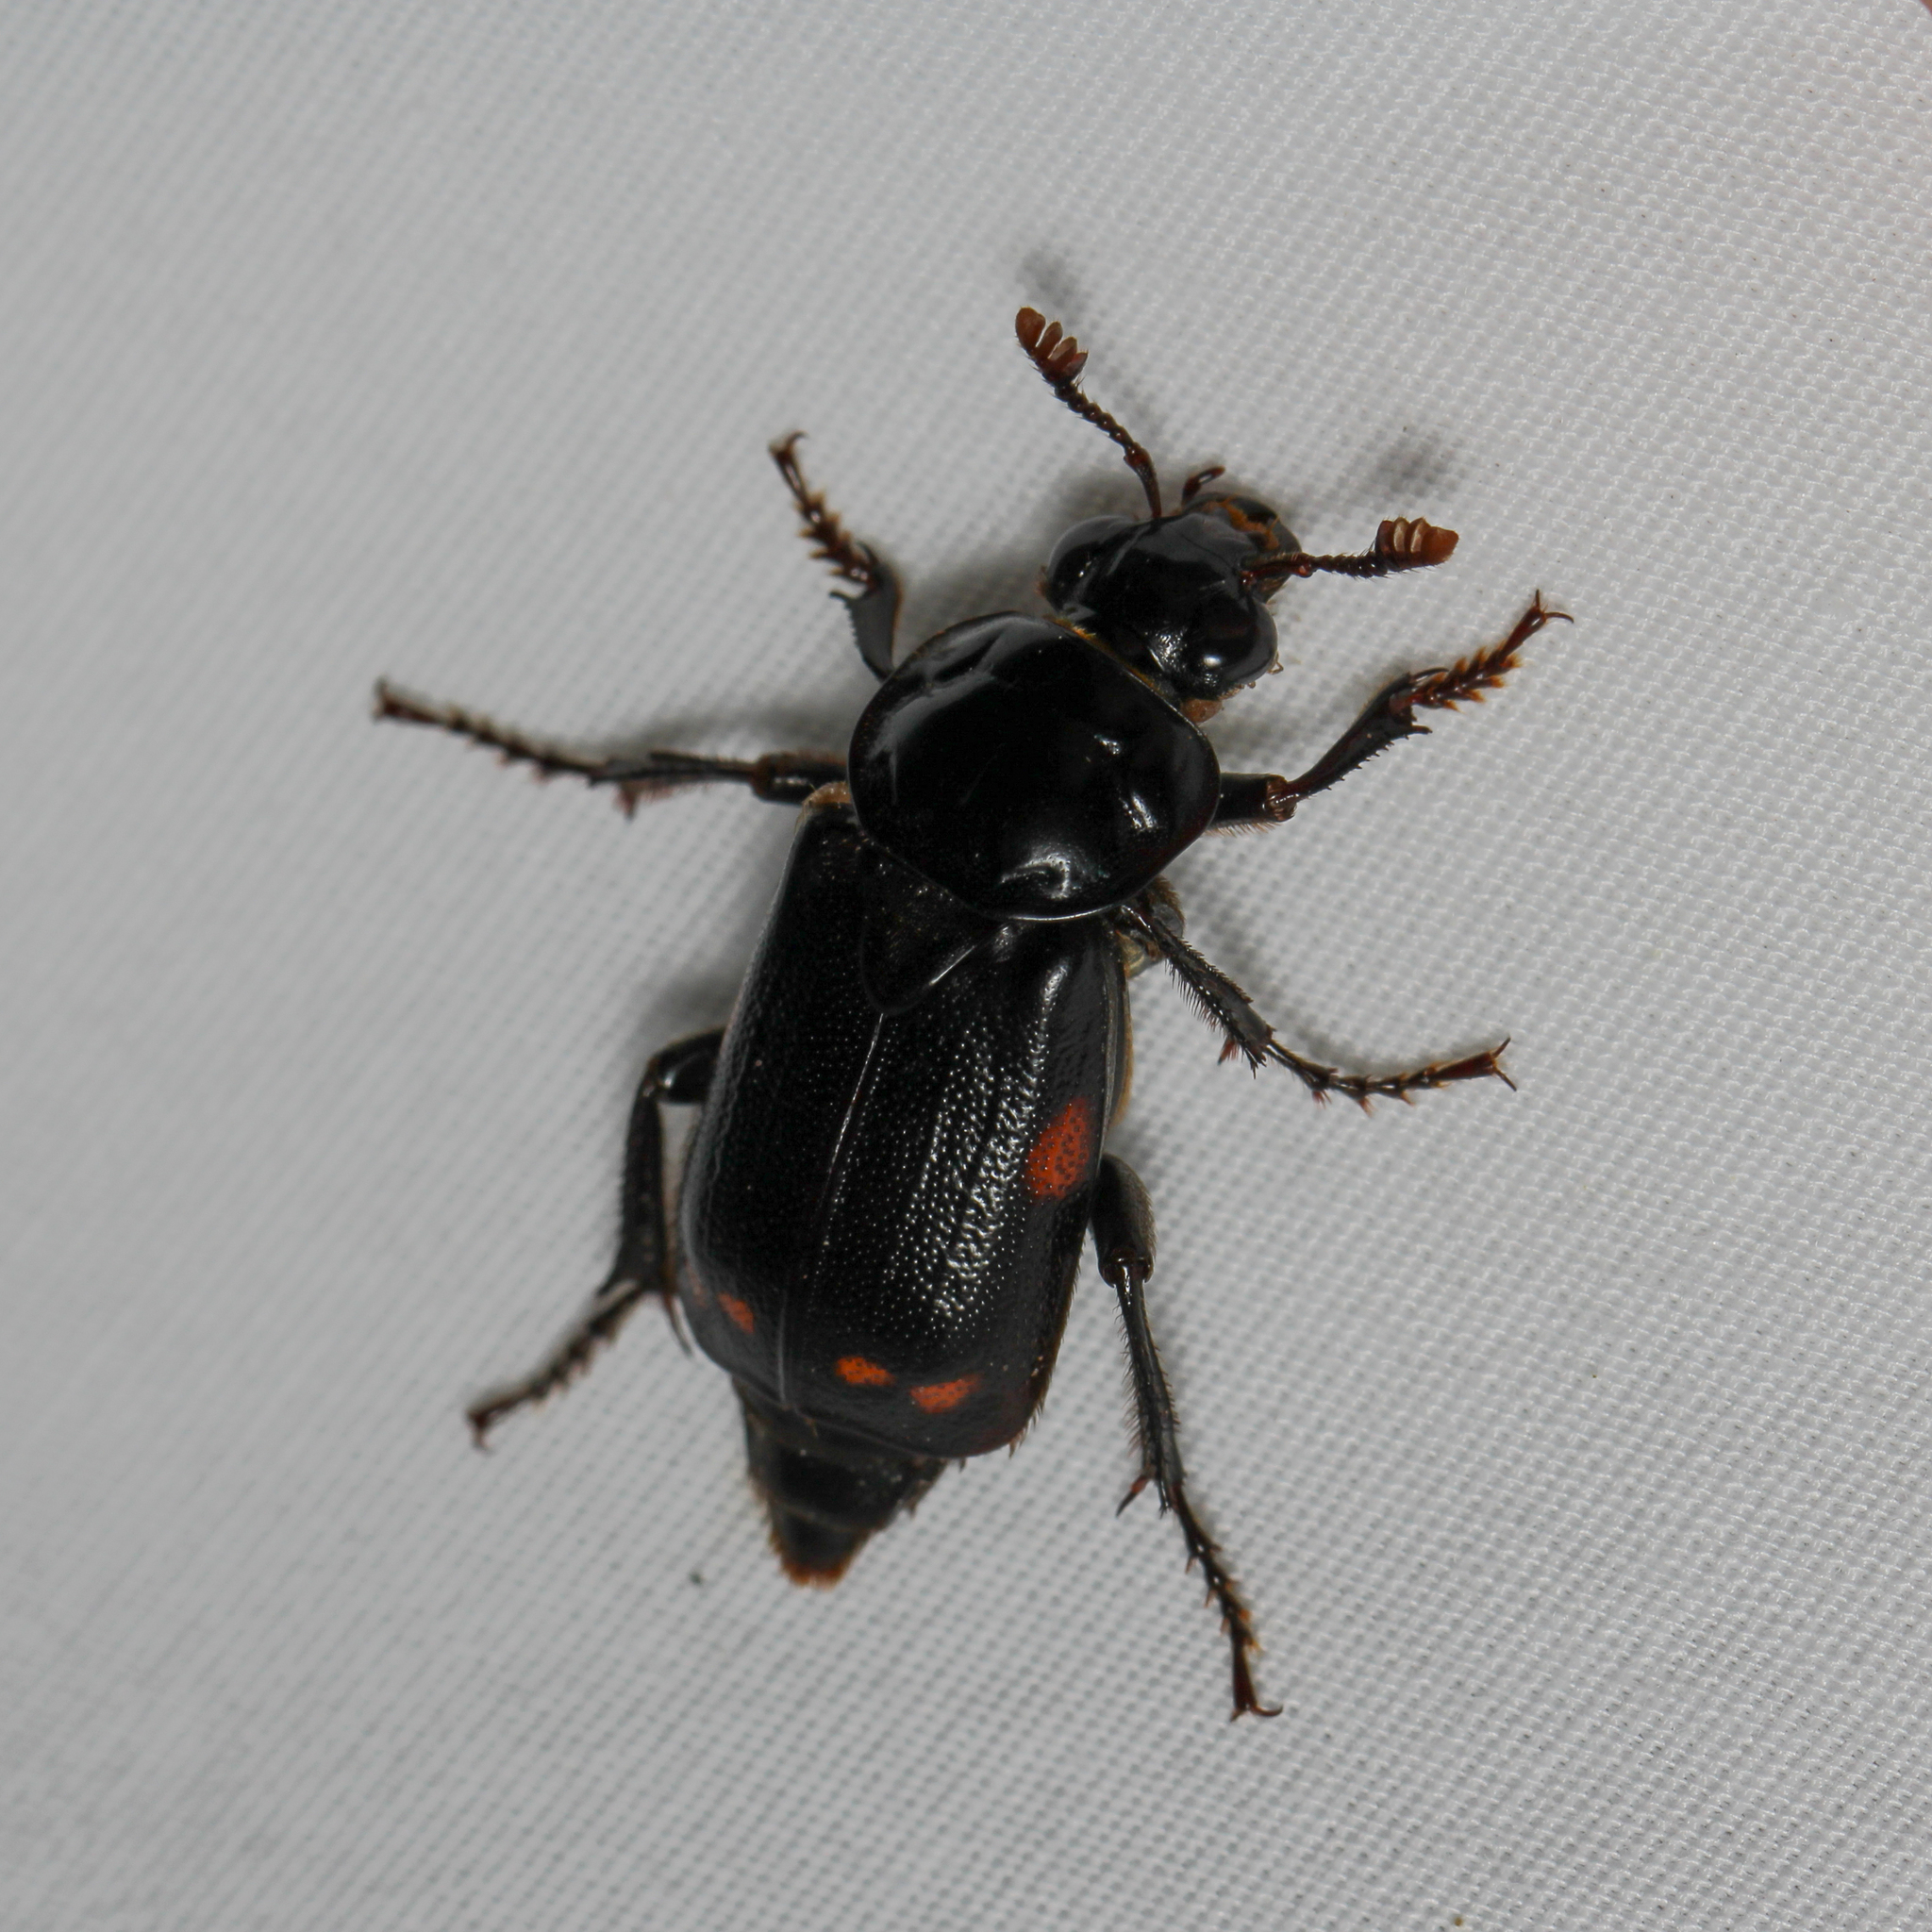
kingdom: Animalia
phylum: Arthropoda
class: Insecta
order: Coleoptera
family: Staphylinidae
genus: Nicrophorus
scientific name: Nicrophorus pustulatus
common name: Pustulated carrion beetle
